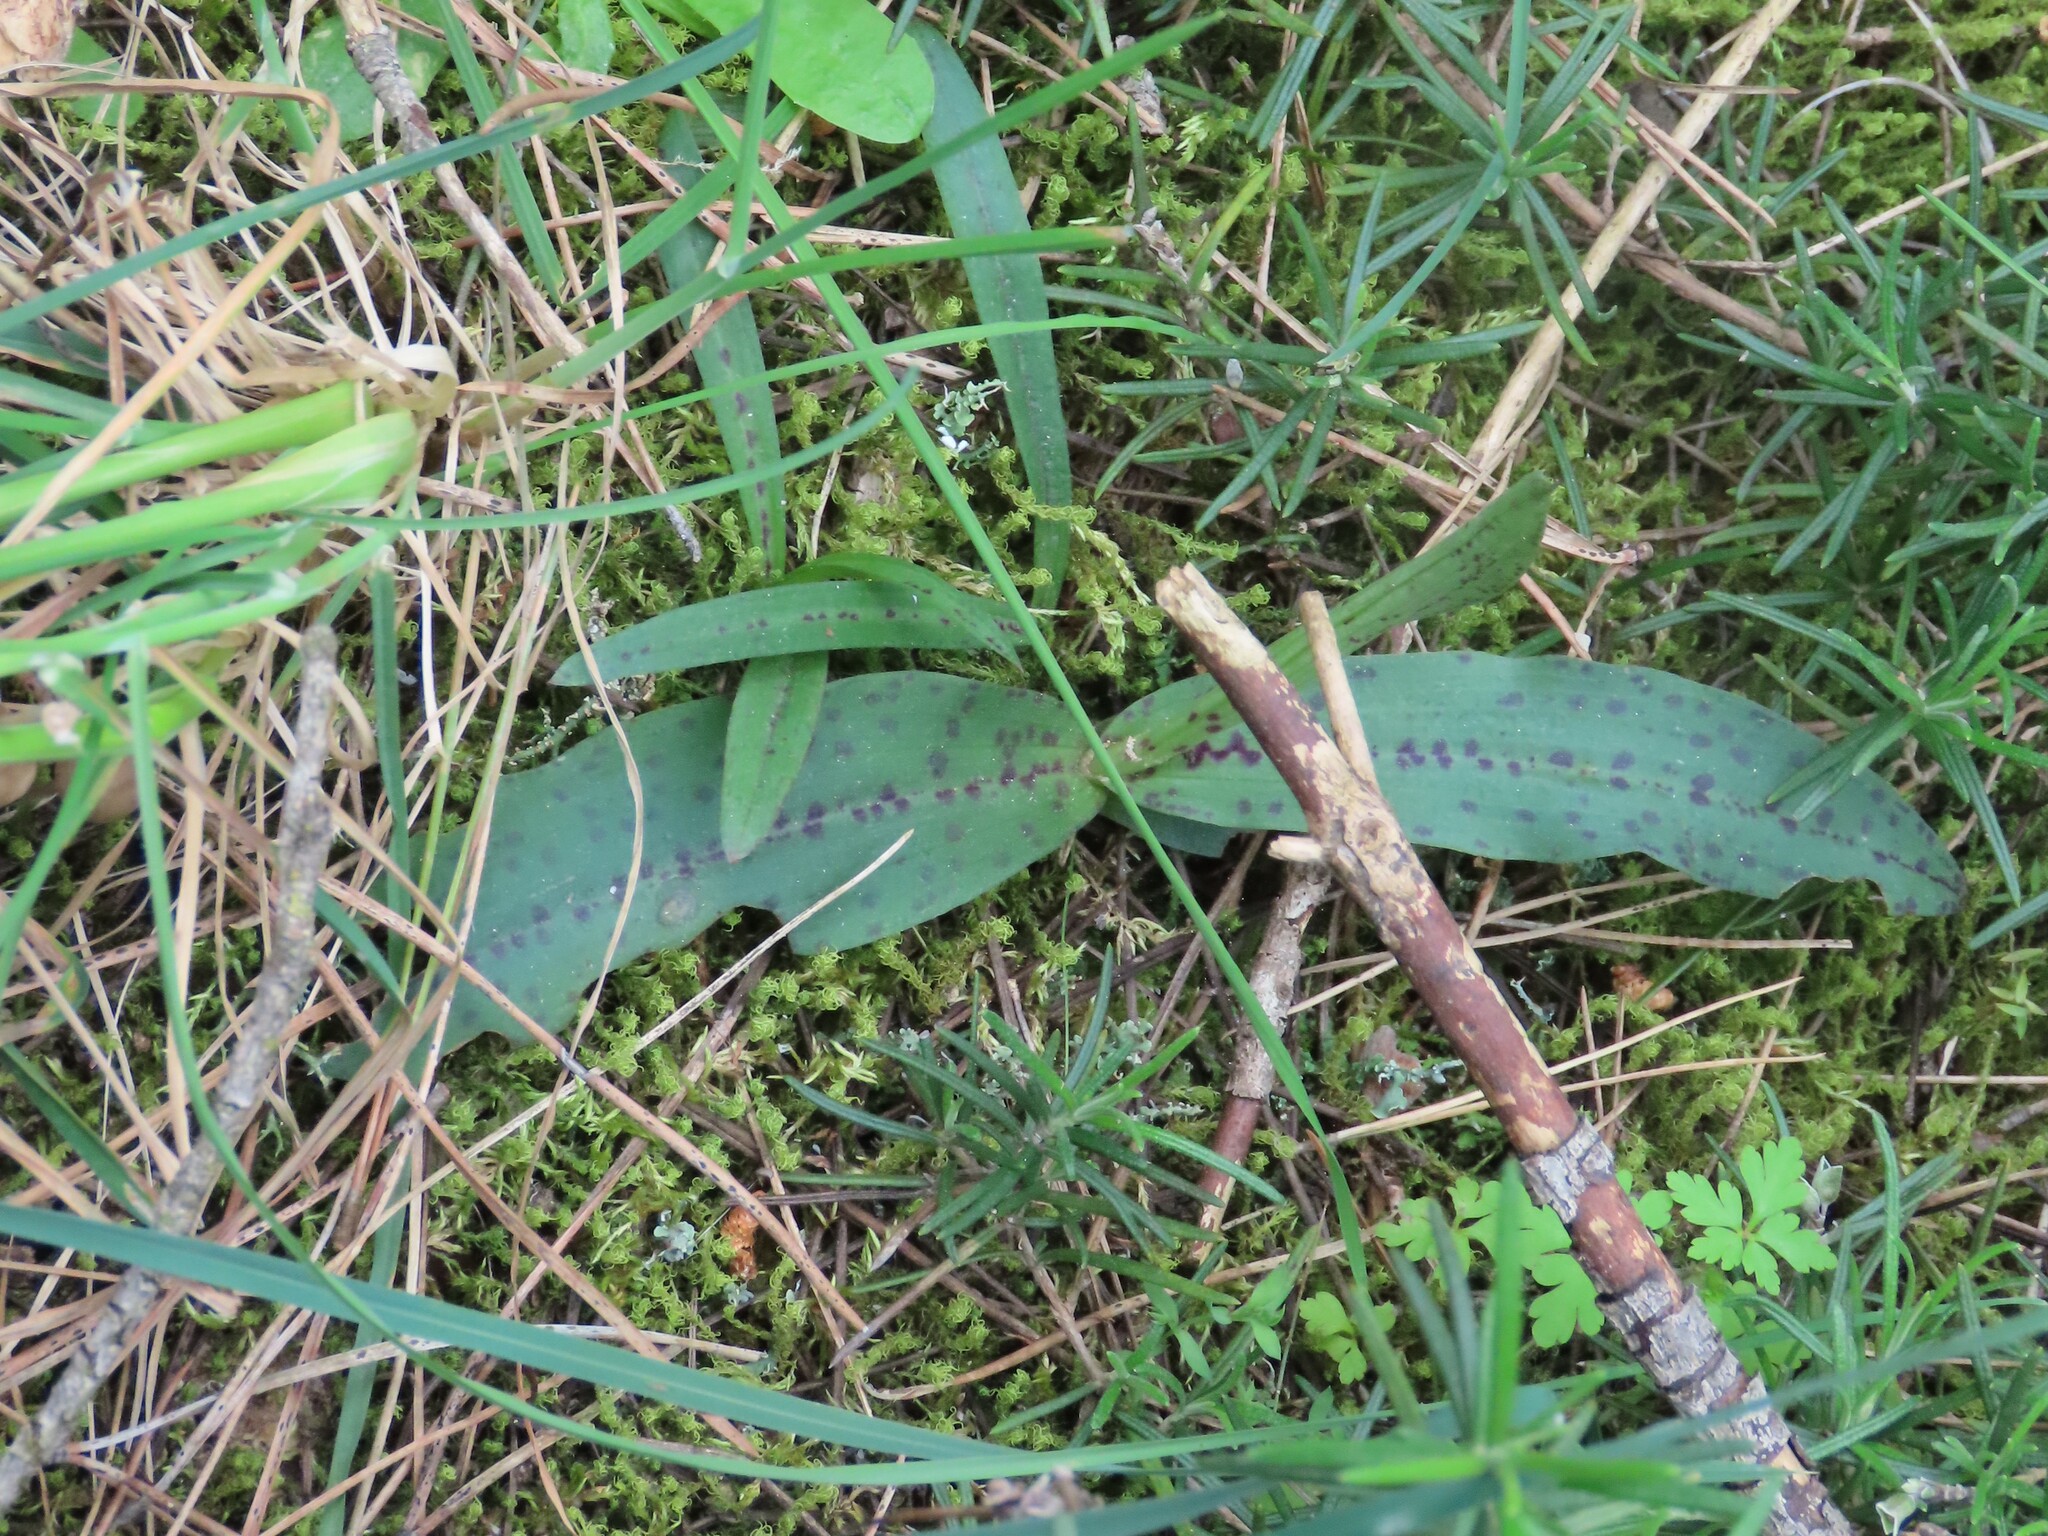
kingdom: Plantae
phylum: Tracheophyta
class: Liliopsida
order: Asparagales
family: Orchidaceae
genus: Neotinea
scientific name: Neotinea maculata
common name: Dense-flowered orchid
